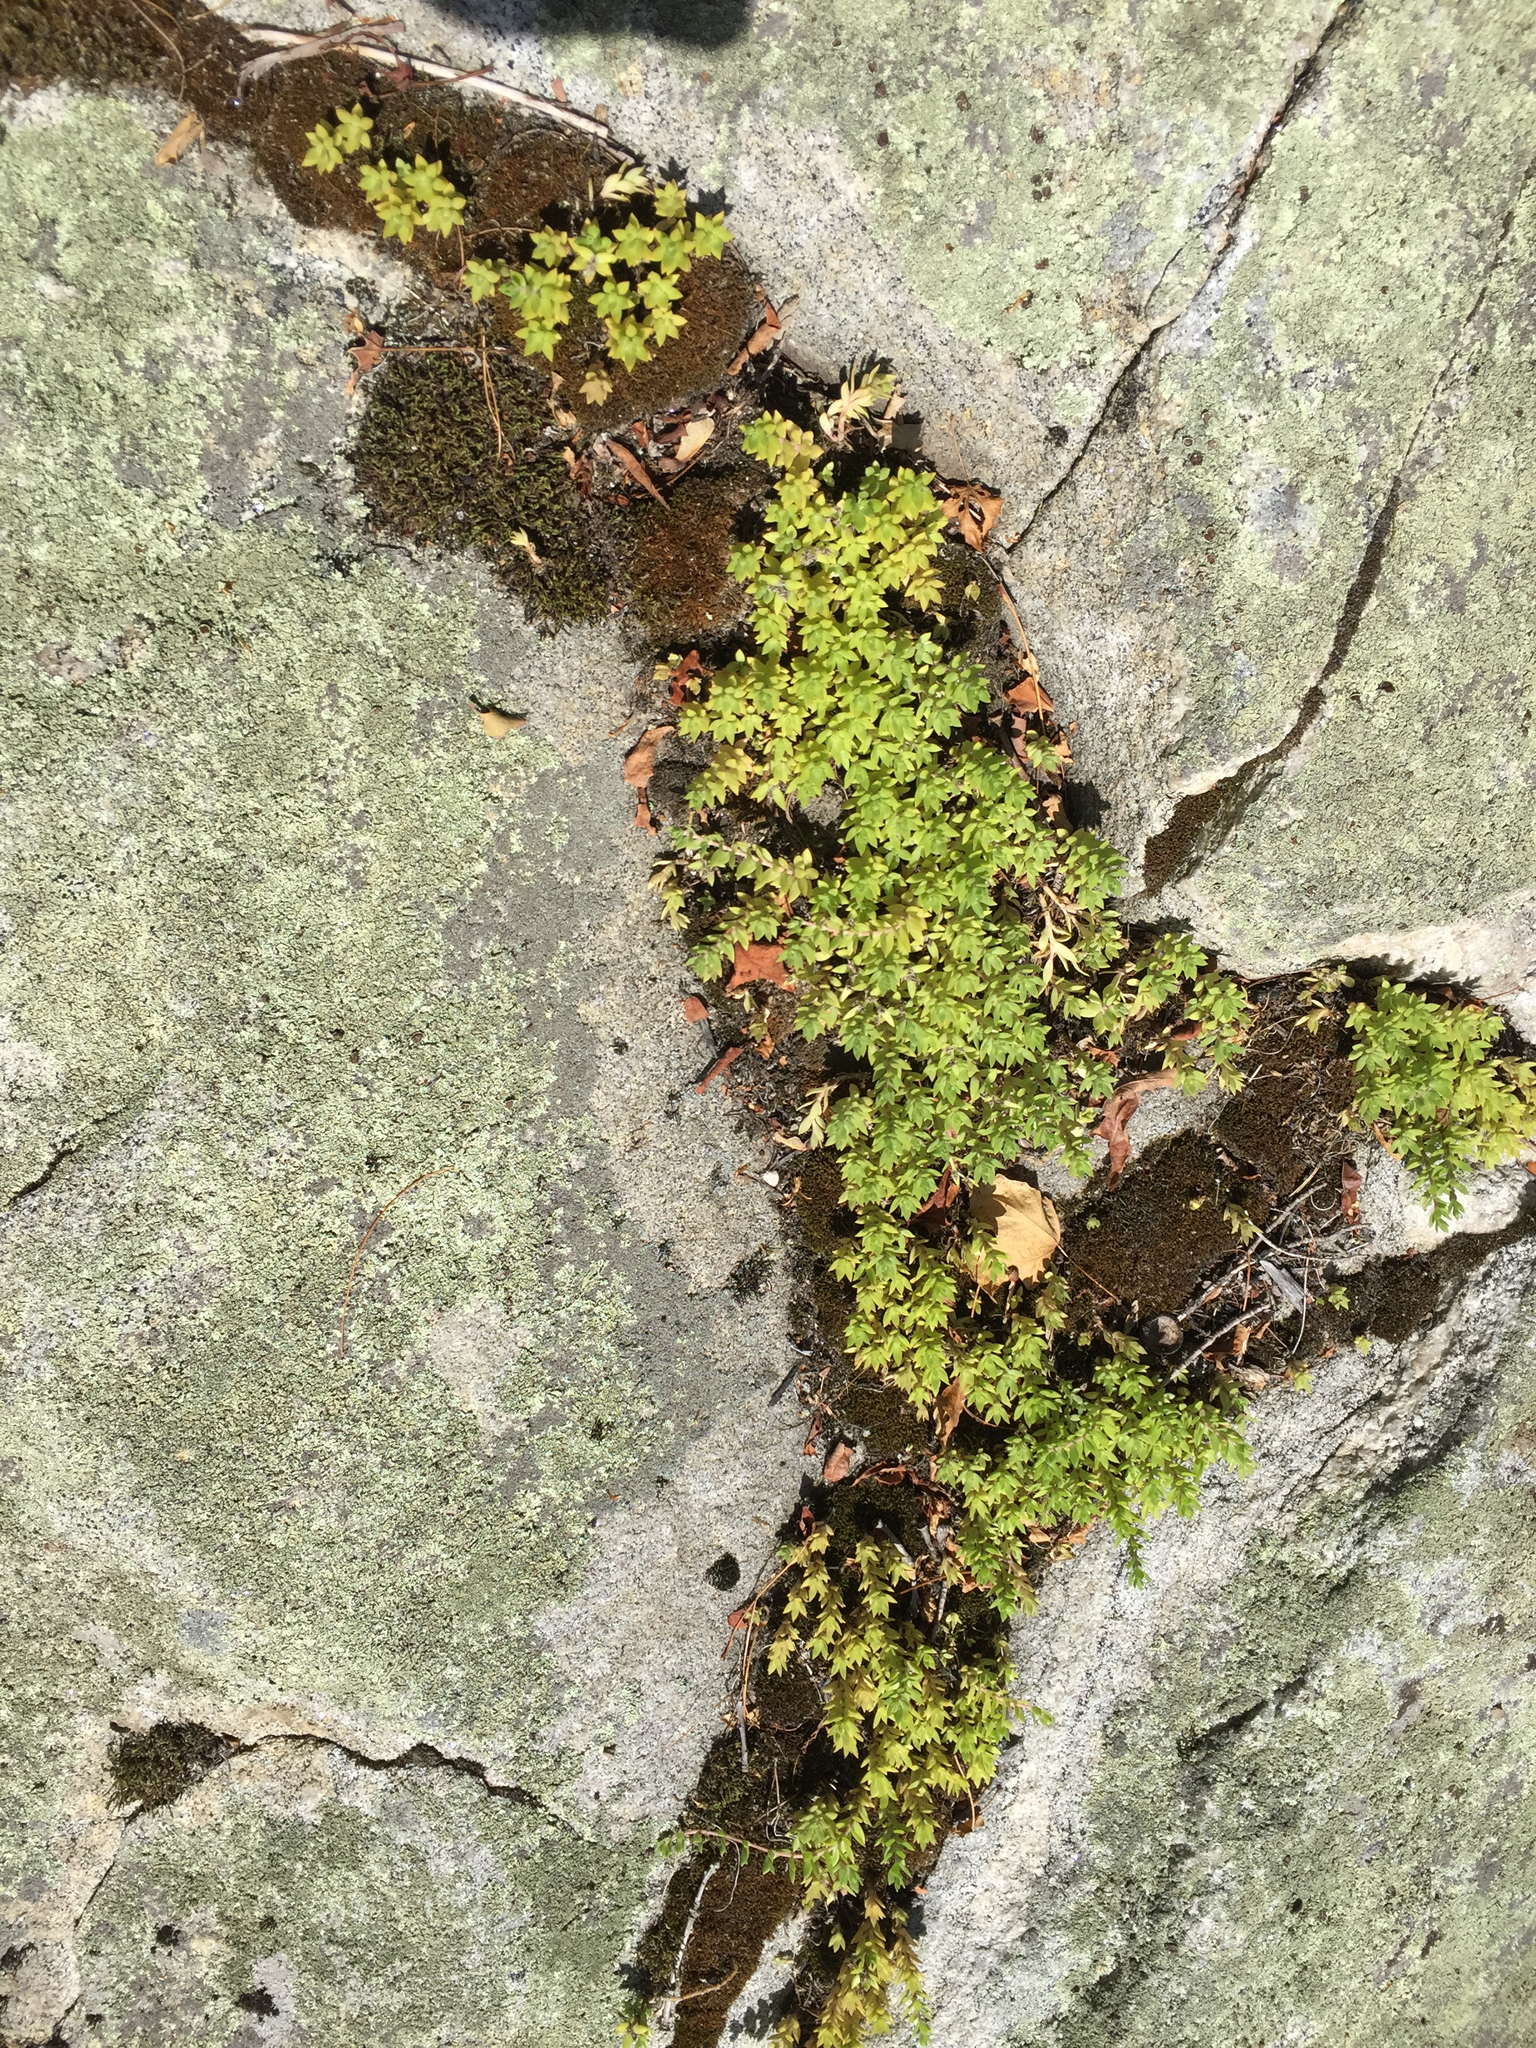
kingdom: Plantae
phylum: Tracheophyta
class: Magnoliopsida
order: Saxifragales
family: Crassulaceae
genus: Sedum
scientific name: Sedum sarmentosum
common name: Stringy stonecrop
